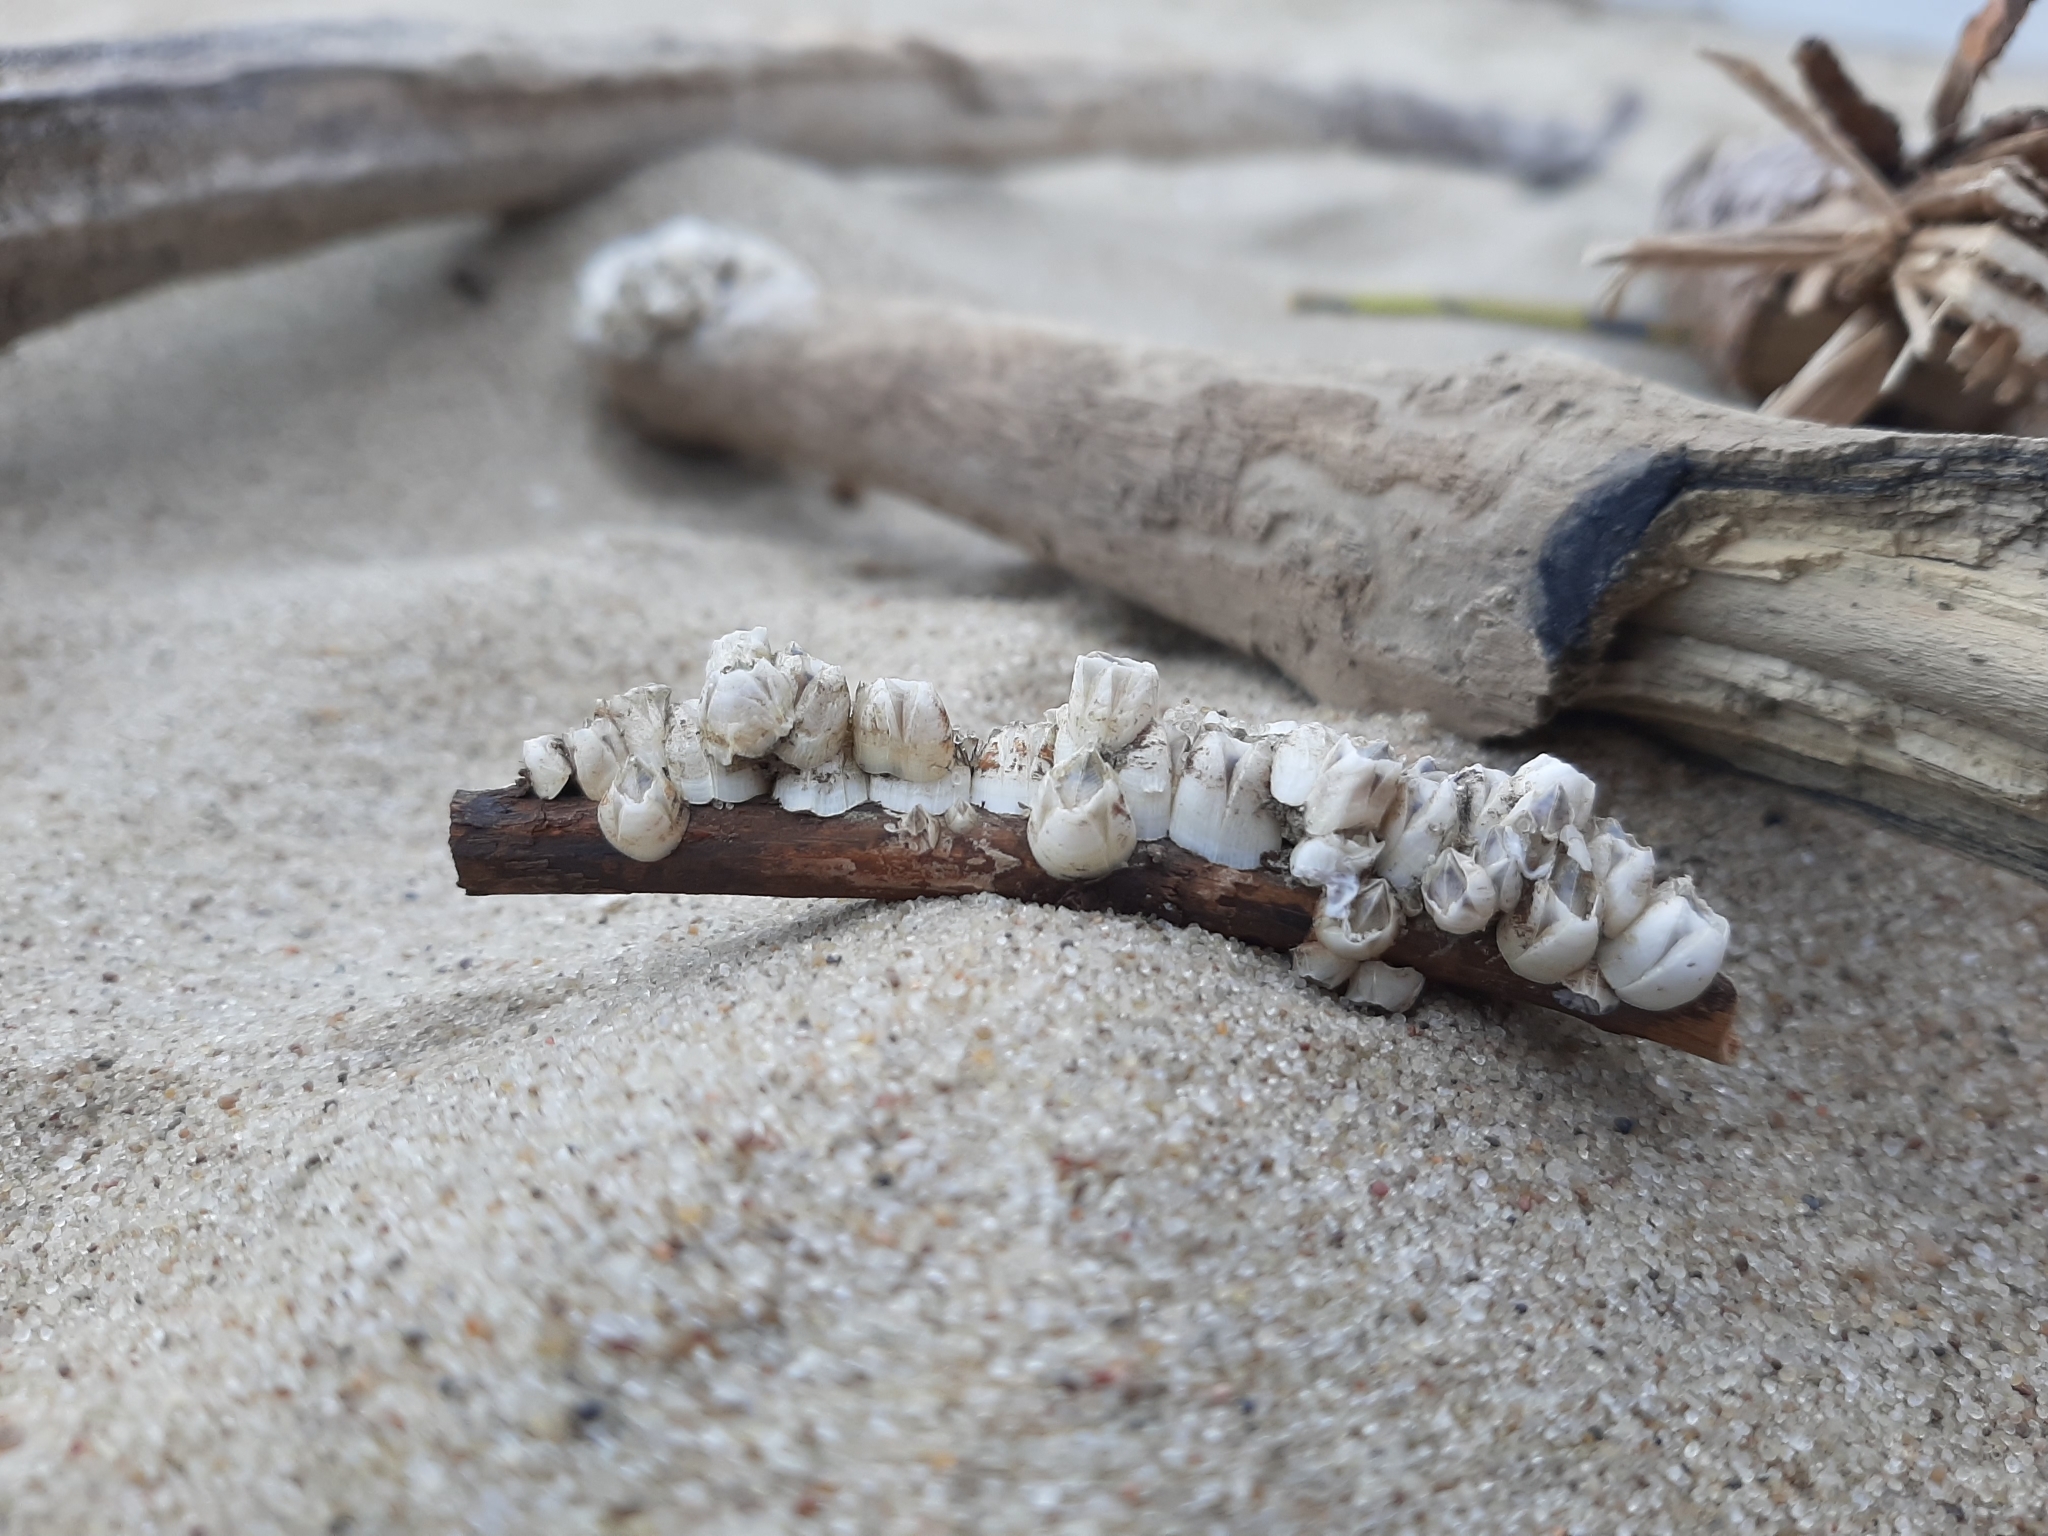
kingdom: Animalia
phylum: Arthropoda
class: Maxillopoda
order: Sessilia
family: Balanidae
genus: Amphibalanus
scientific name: Amphibalanus improvisus
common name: Bay barnacle
